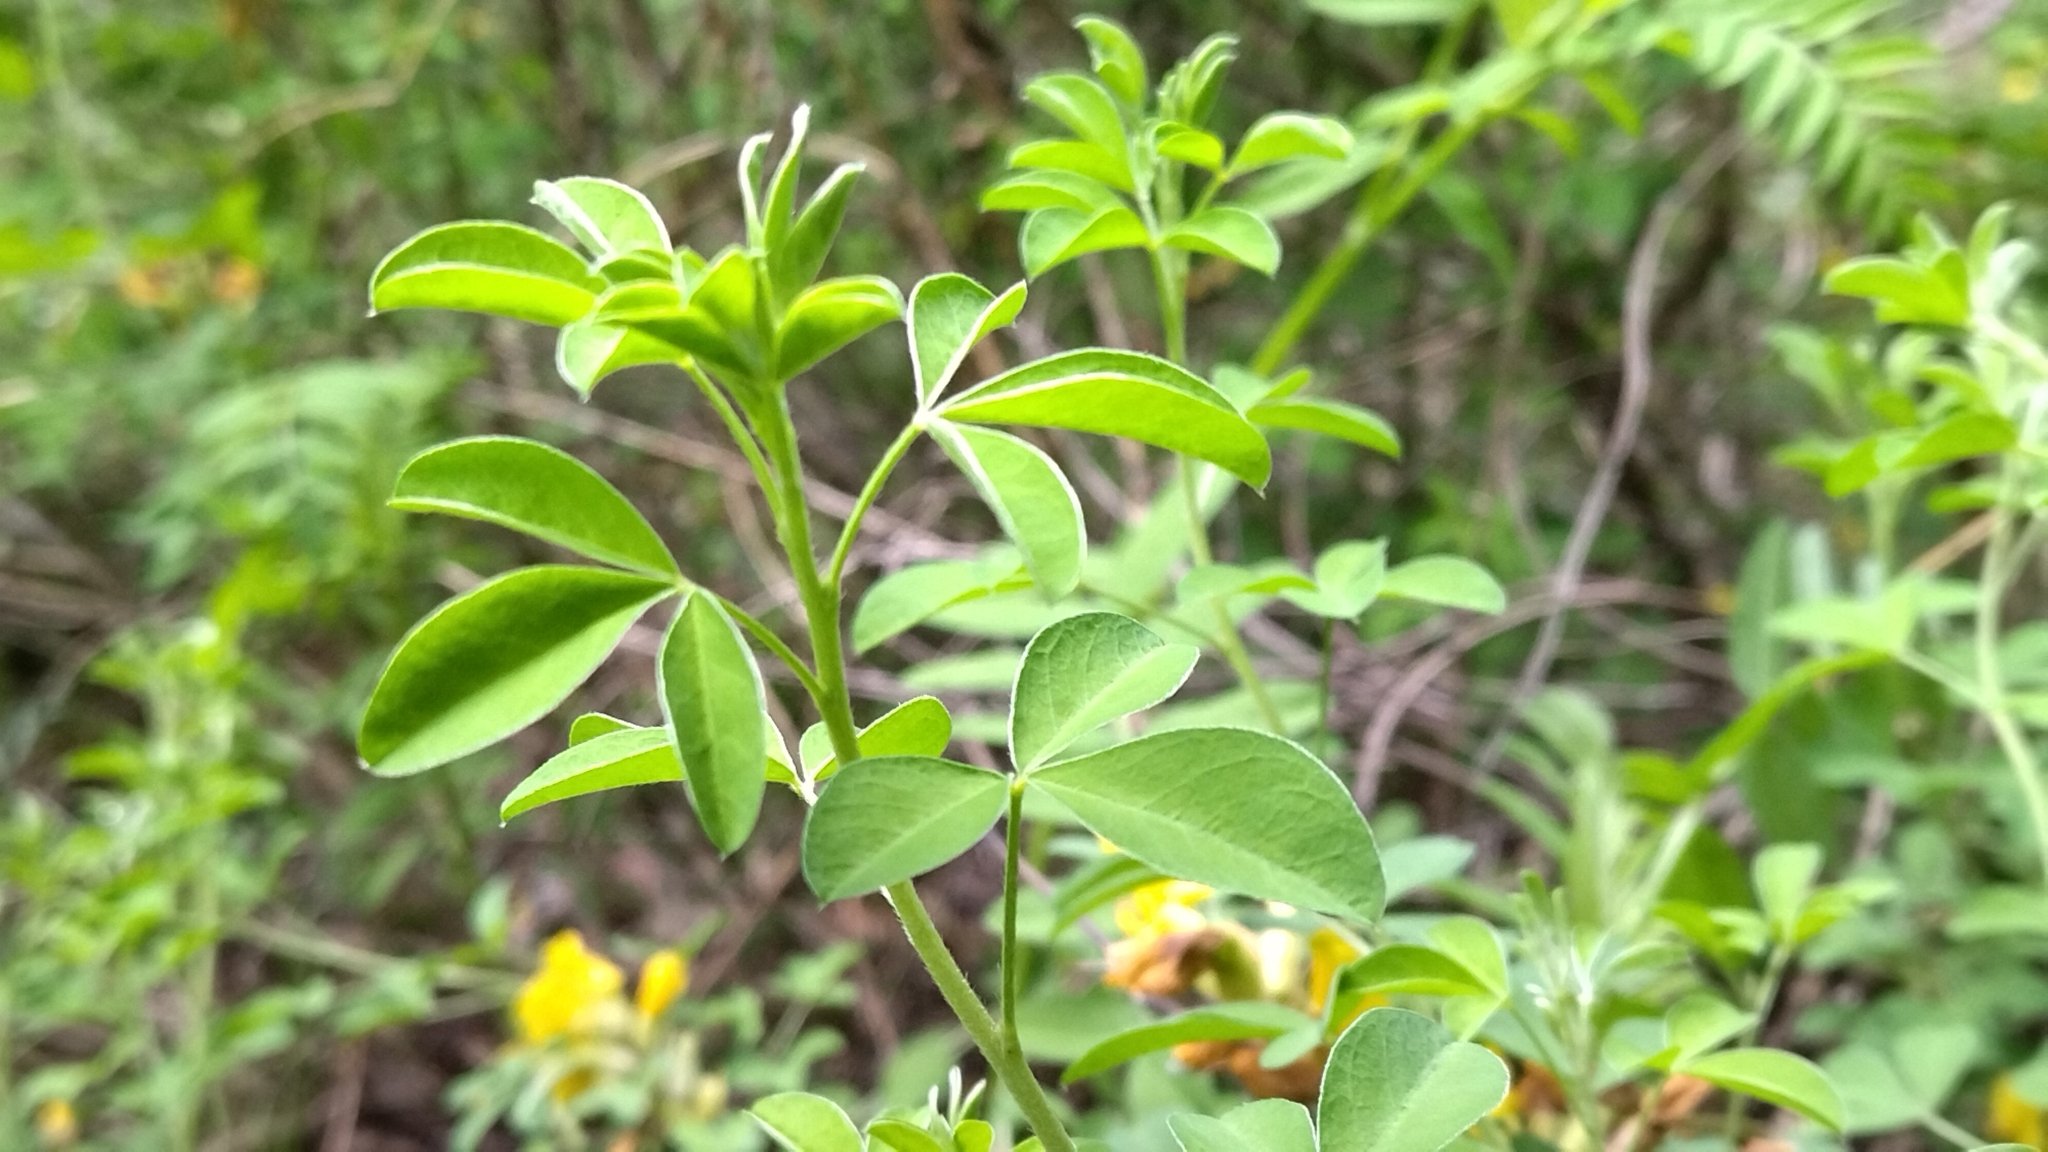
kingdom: Plantae
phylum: Tracheophyta
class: Magnoliopsida
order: Fabales
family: Fabaceae
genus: Chamaecytisus
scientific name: Chamaecytisus ruthenicus
